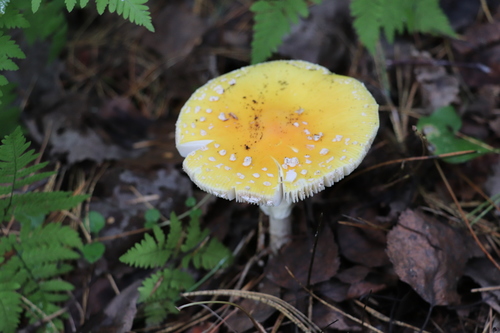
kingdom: Fungi
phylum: Basidiomycota
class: Agaricomycetes
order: Agaricales
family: Amanitaceae
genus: Amanita
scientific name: Amanita muscaria
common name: Fly agaric
